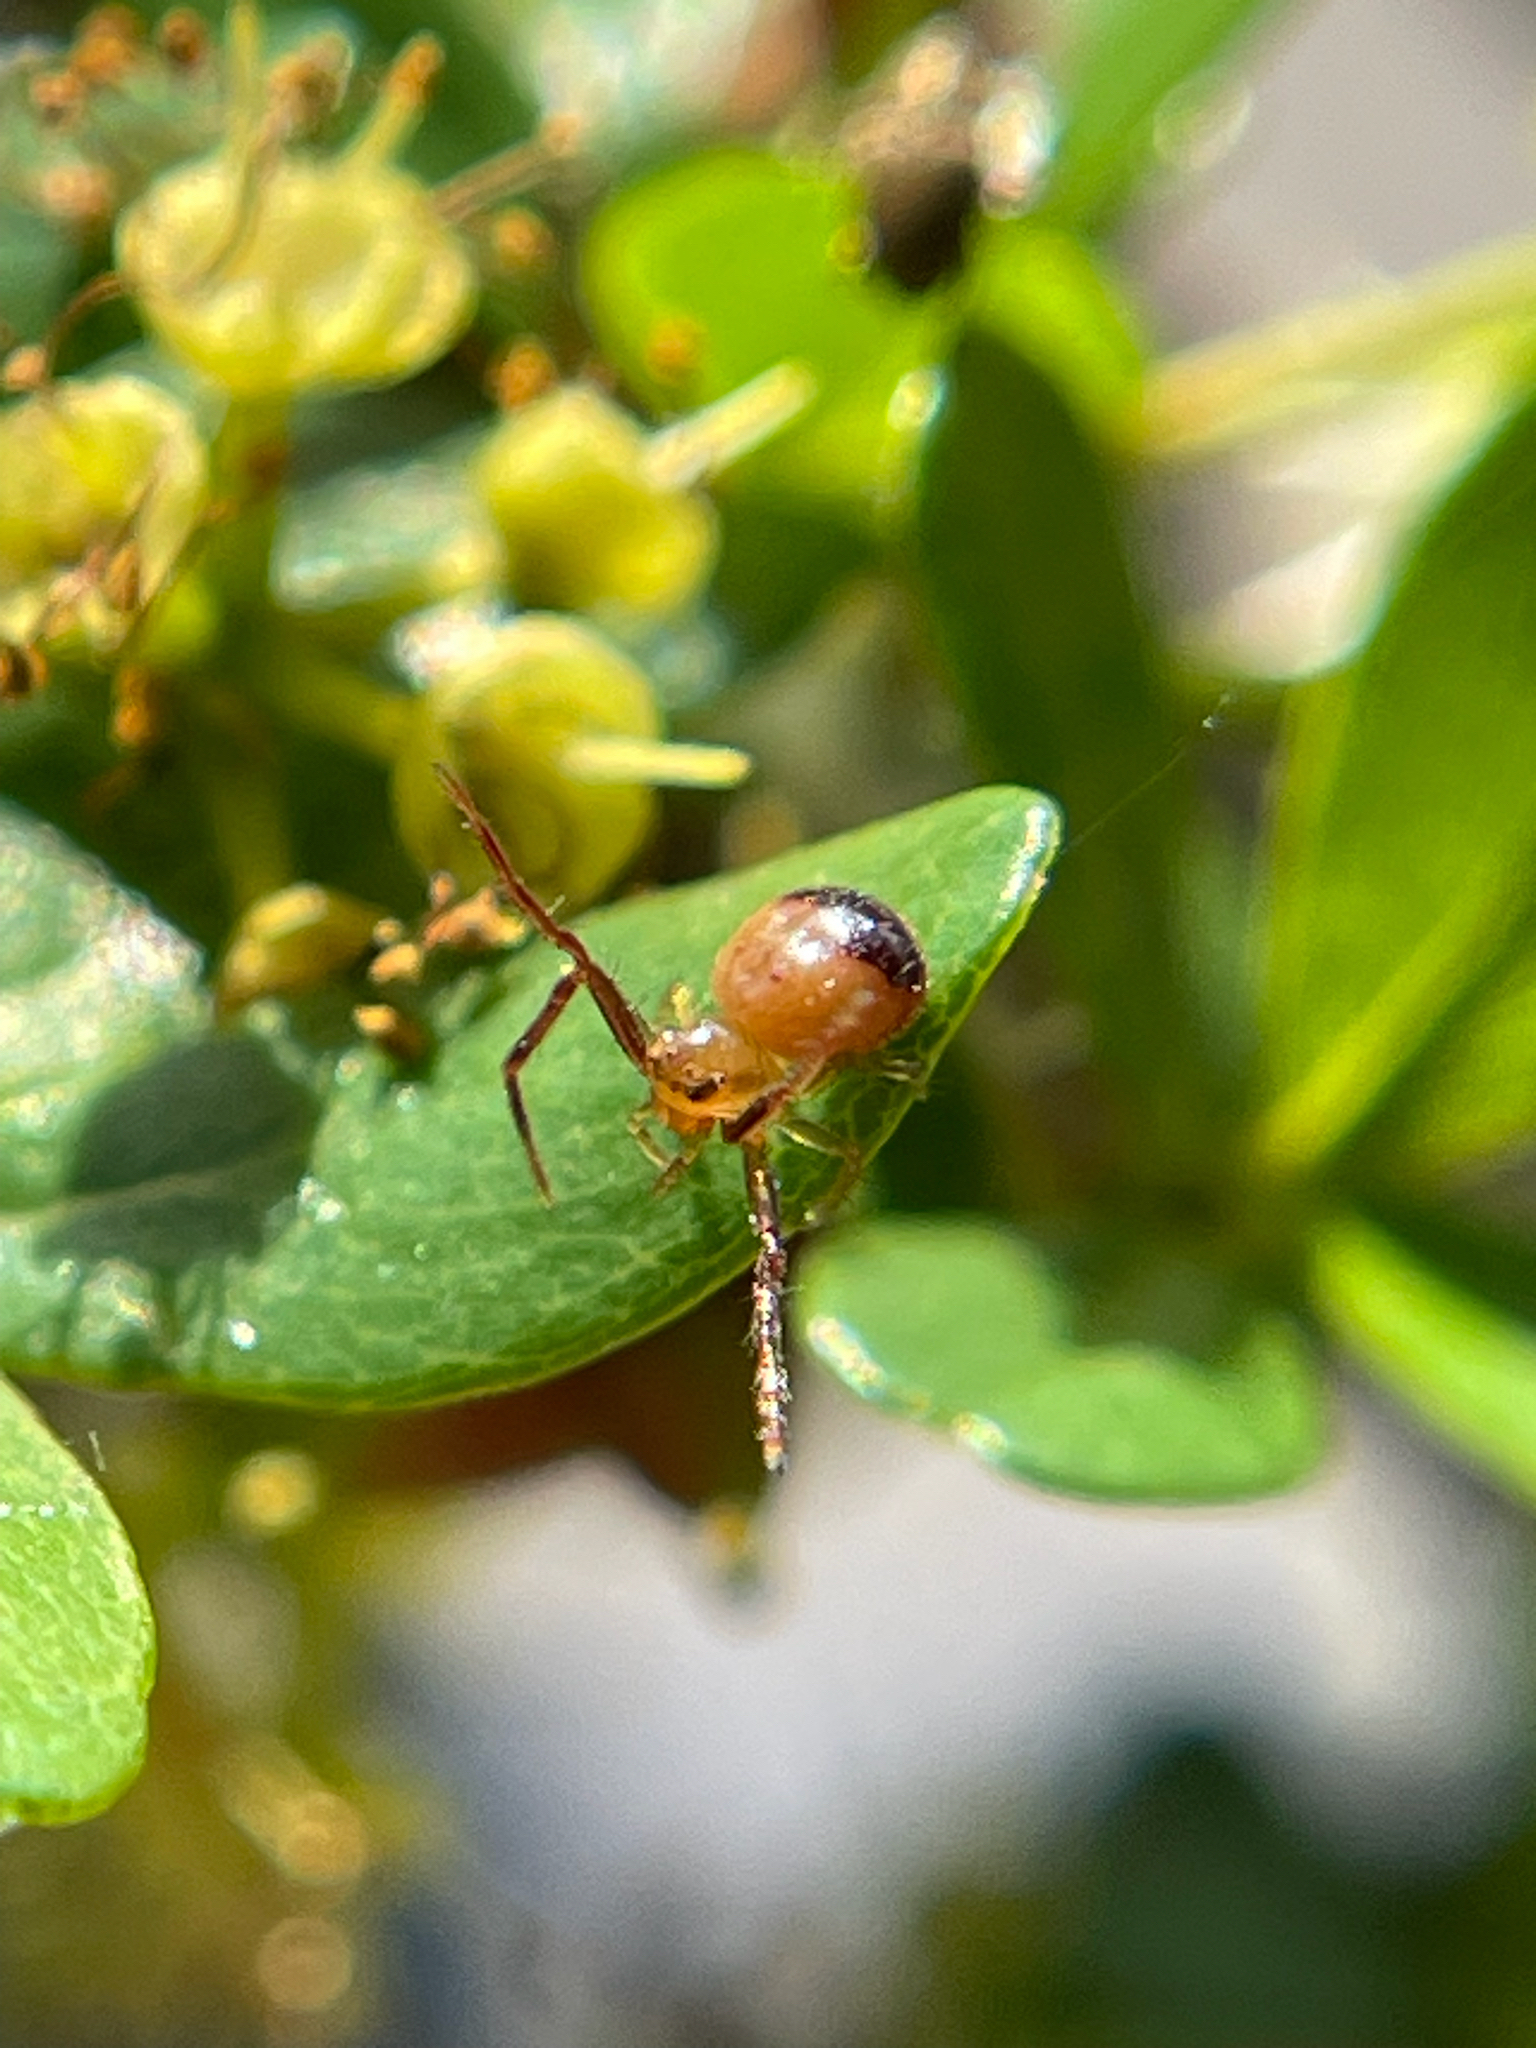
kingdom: Animalia
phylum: Arthropoda
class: Arachnida
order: Araneae
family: Thomisidae
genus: Synema
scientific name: Synema parvulum
